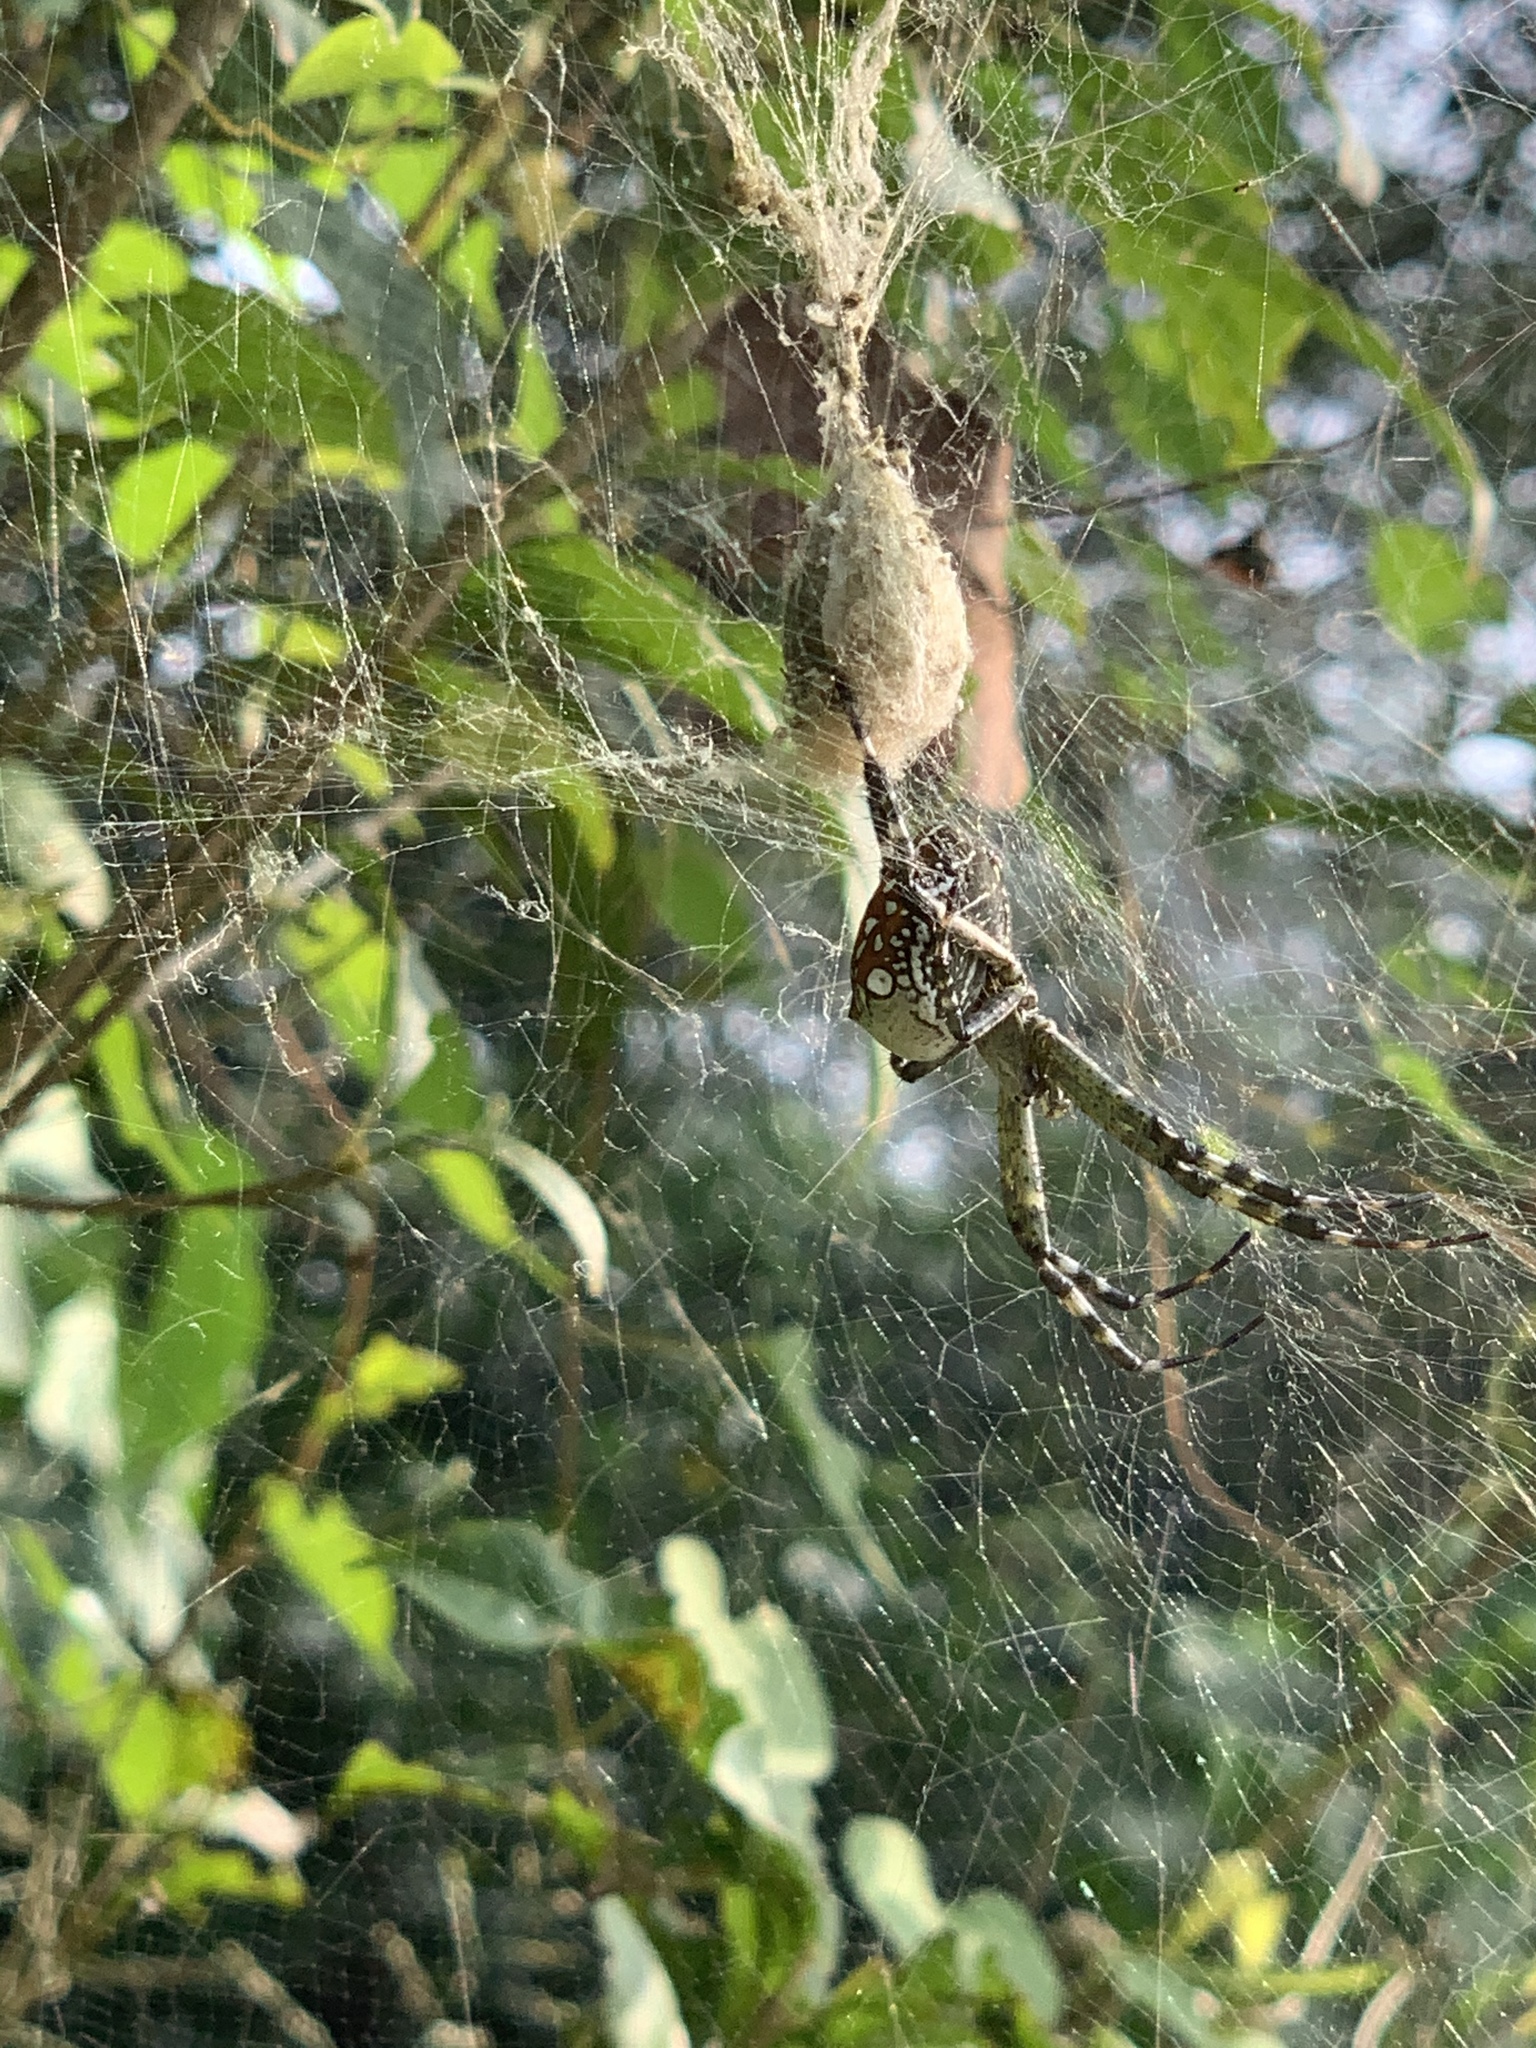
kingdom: Chromista
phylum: Ochrophyta
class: Dictyochophyceae
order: Pedinellales
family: Cyrtophoraceae
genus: Cyrtophora
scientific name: Cyrtophora moluccensis
